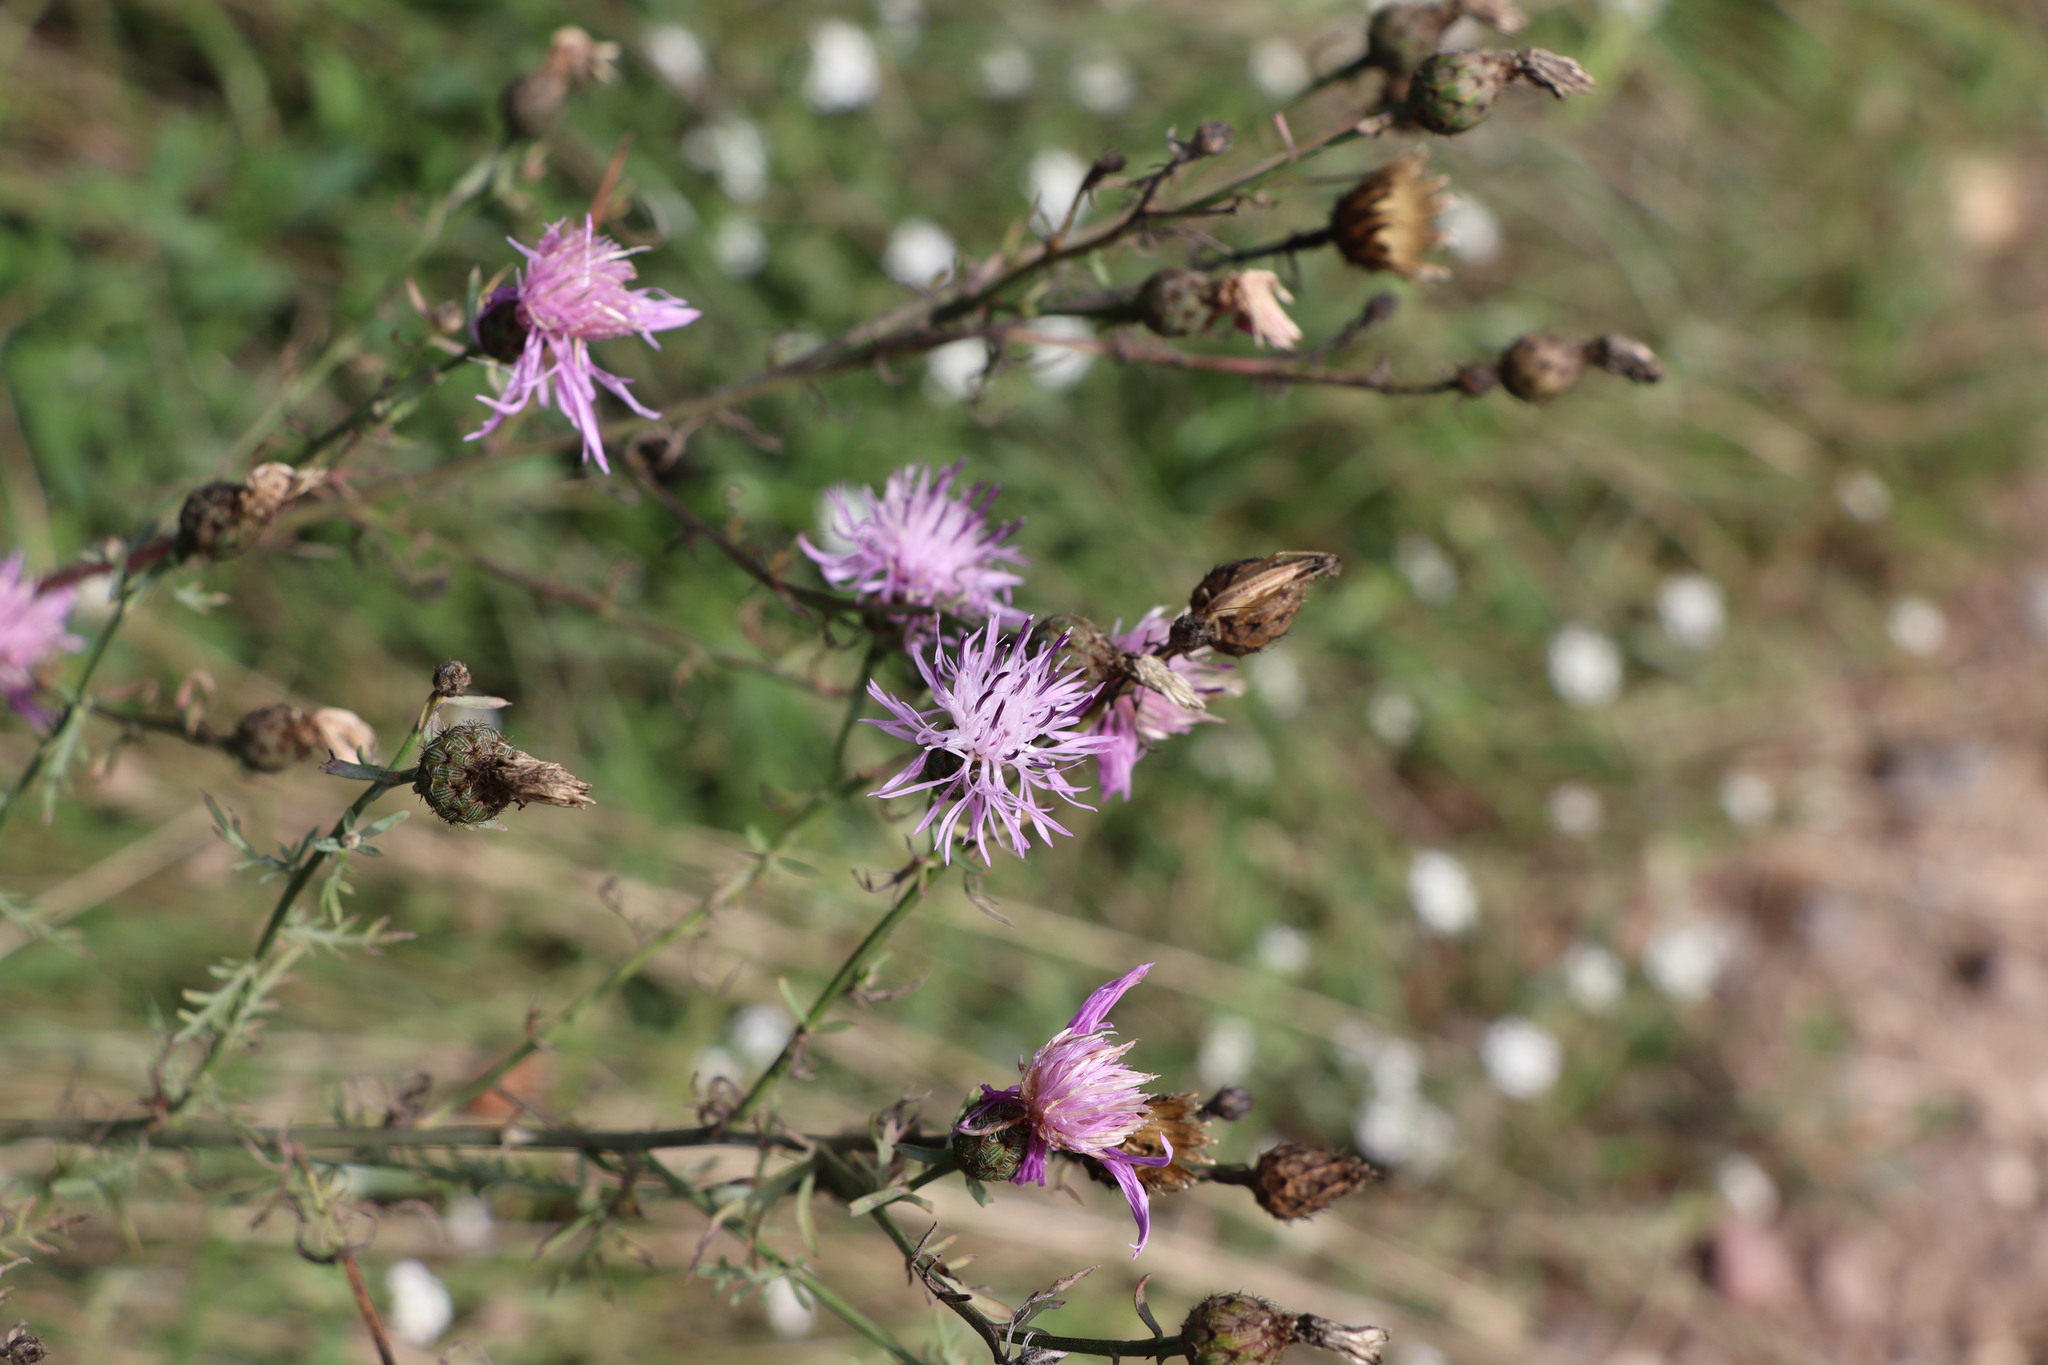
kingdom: Plantae
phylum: Tracheophyta
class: Magnoliopsida
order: Asterales
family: Asteraceae
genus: Centaurea
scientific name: Centaurea stoebe
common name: Spotted knapweed
